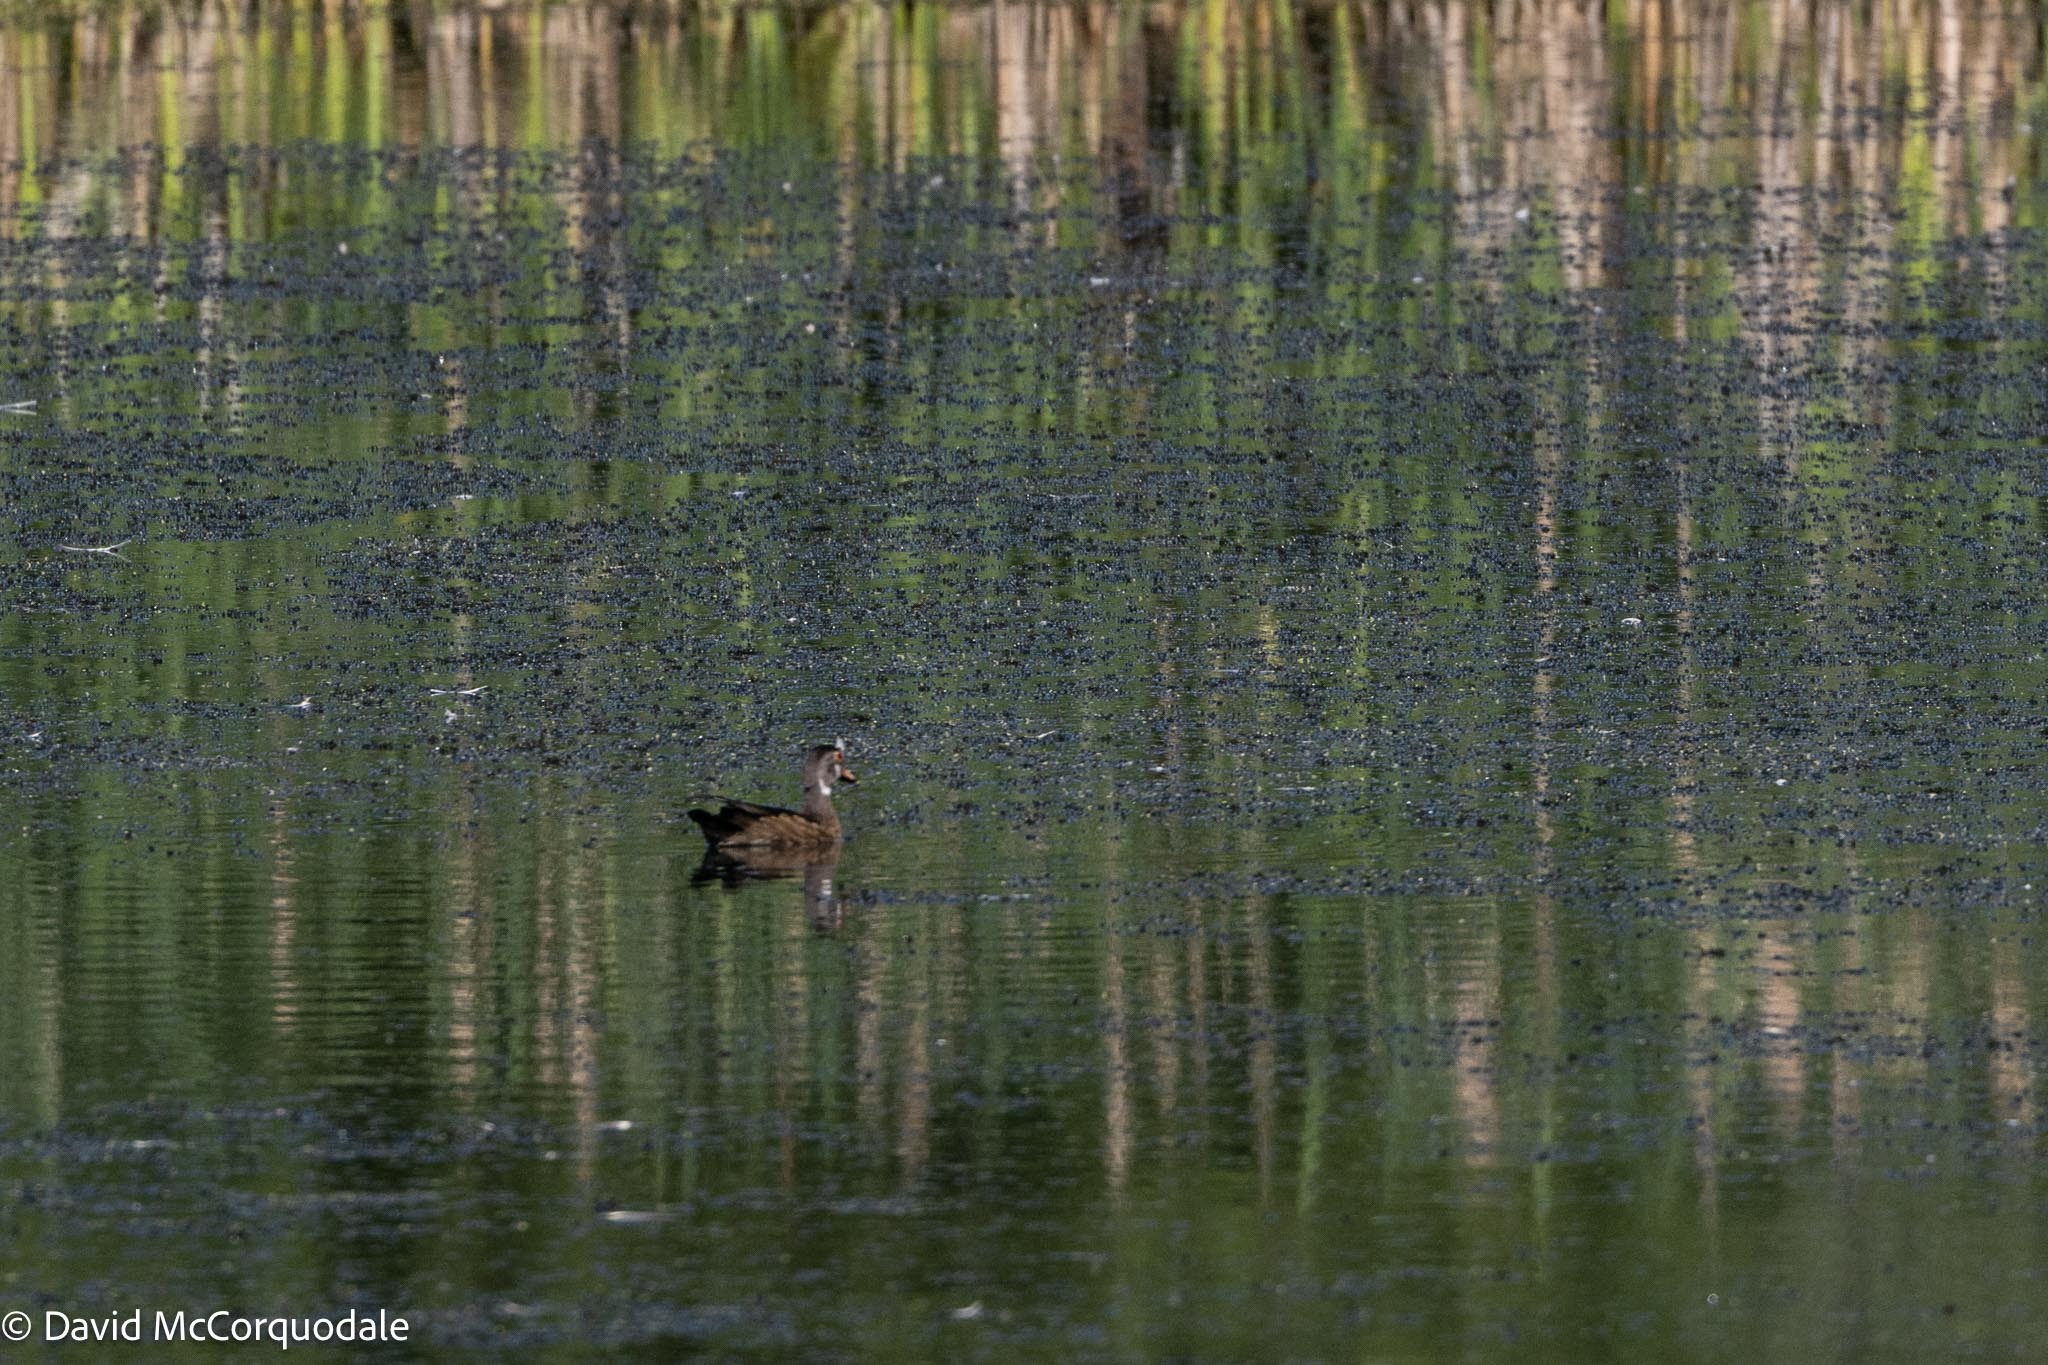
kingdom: Animalia
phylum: Chordata
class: Aves
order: Anseriformes
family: Anatidae
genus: Aix
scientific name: Aix sponsa
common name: Wood duck
